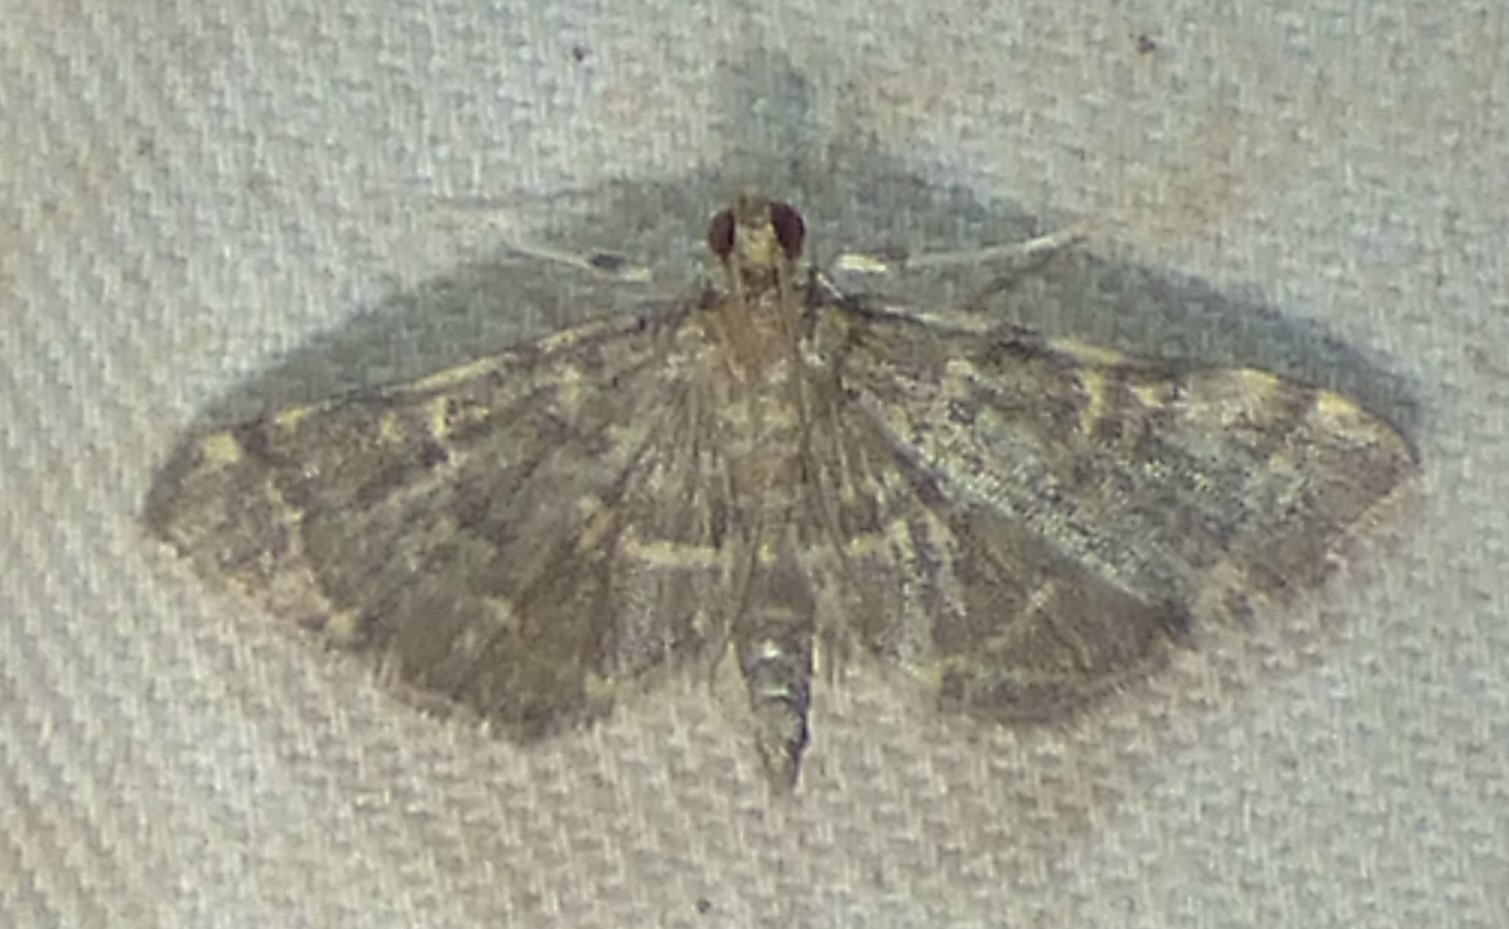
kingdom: Animalia
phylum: Arthropoda
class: Insecta
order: Lepidoptera
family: Crambidae
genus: Anageshna
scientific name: Anageshna primordialis
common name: Yellow-spotted webworm moth
